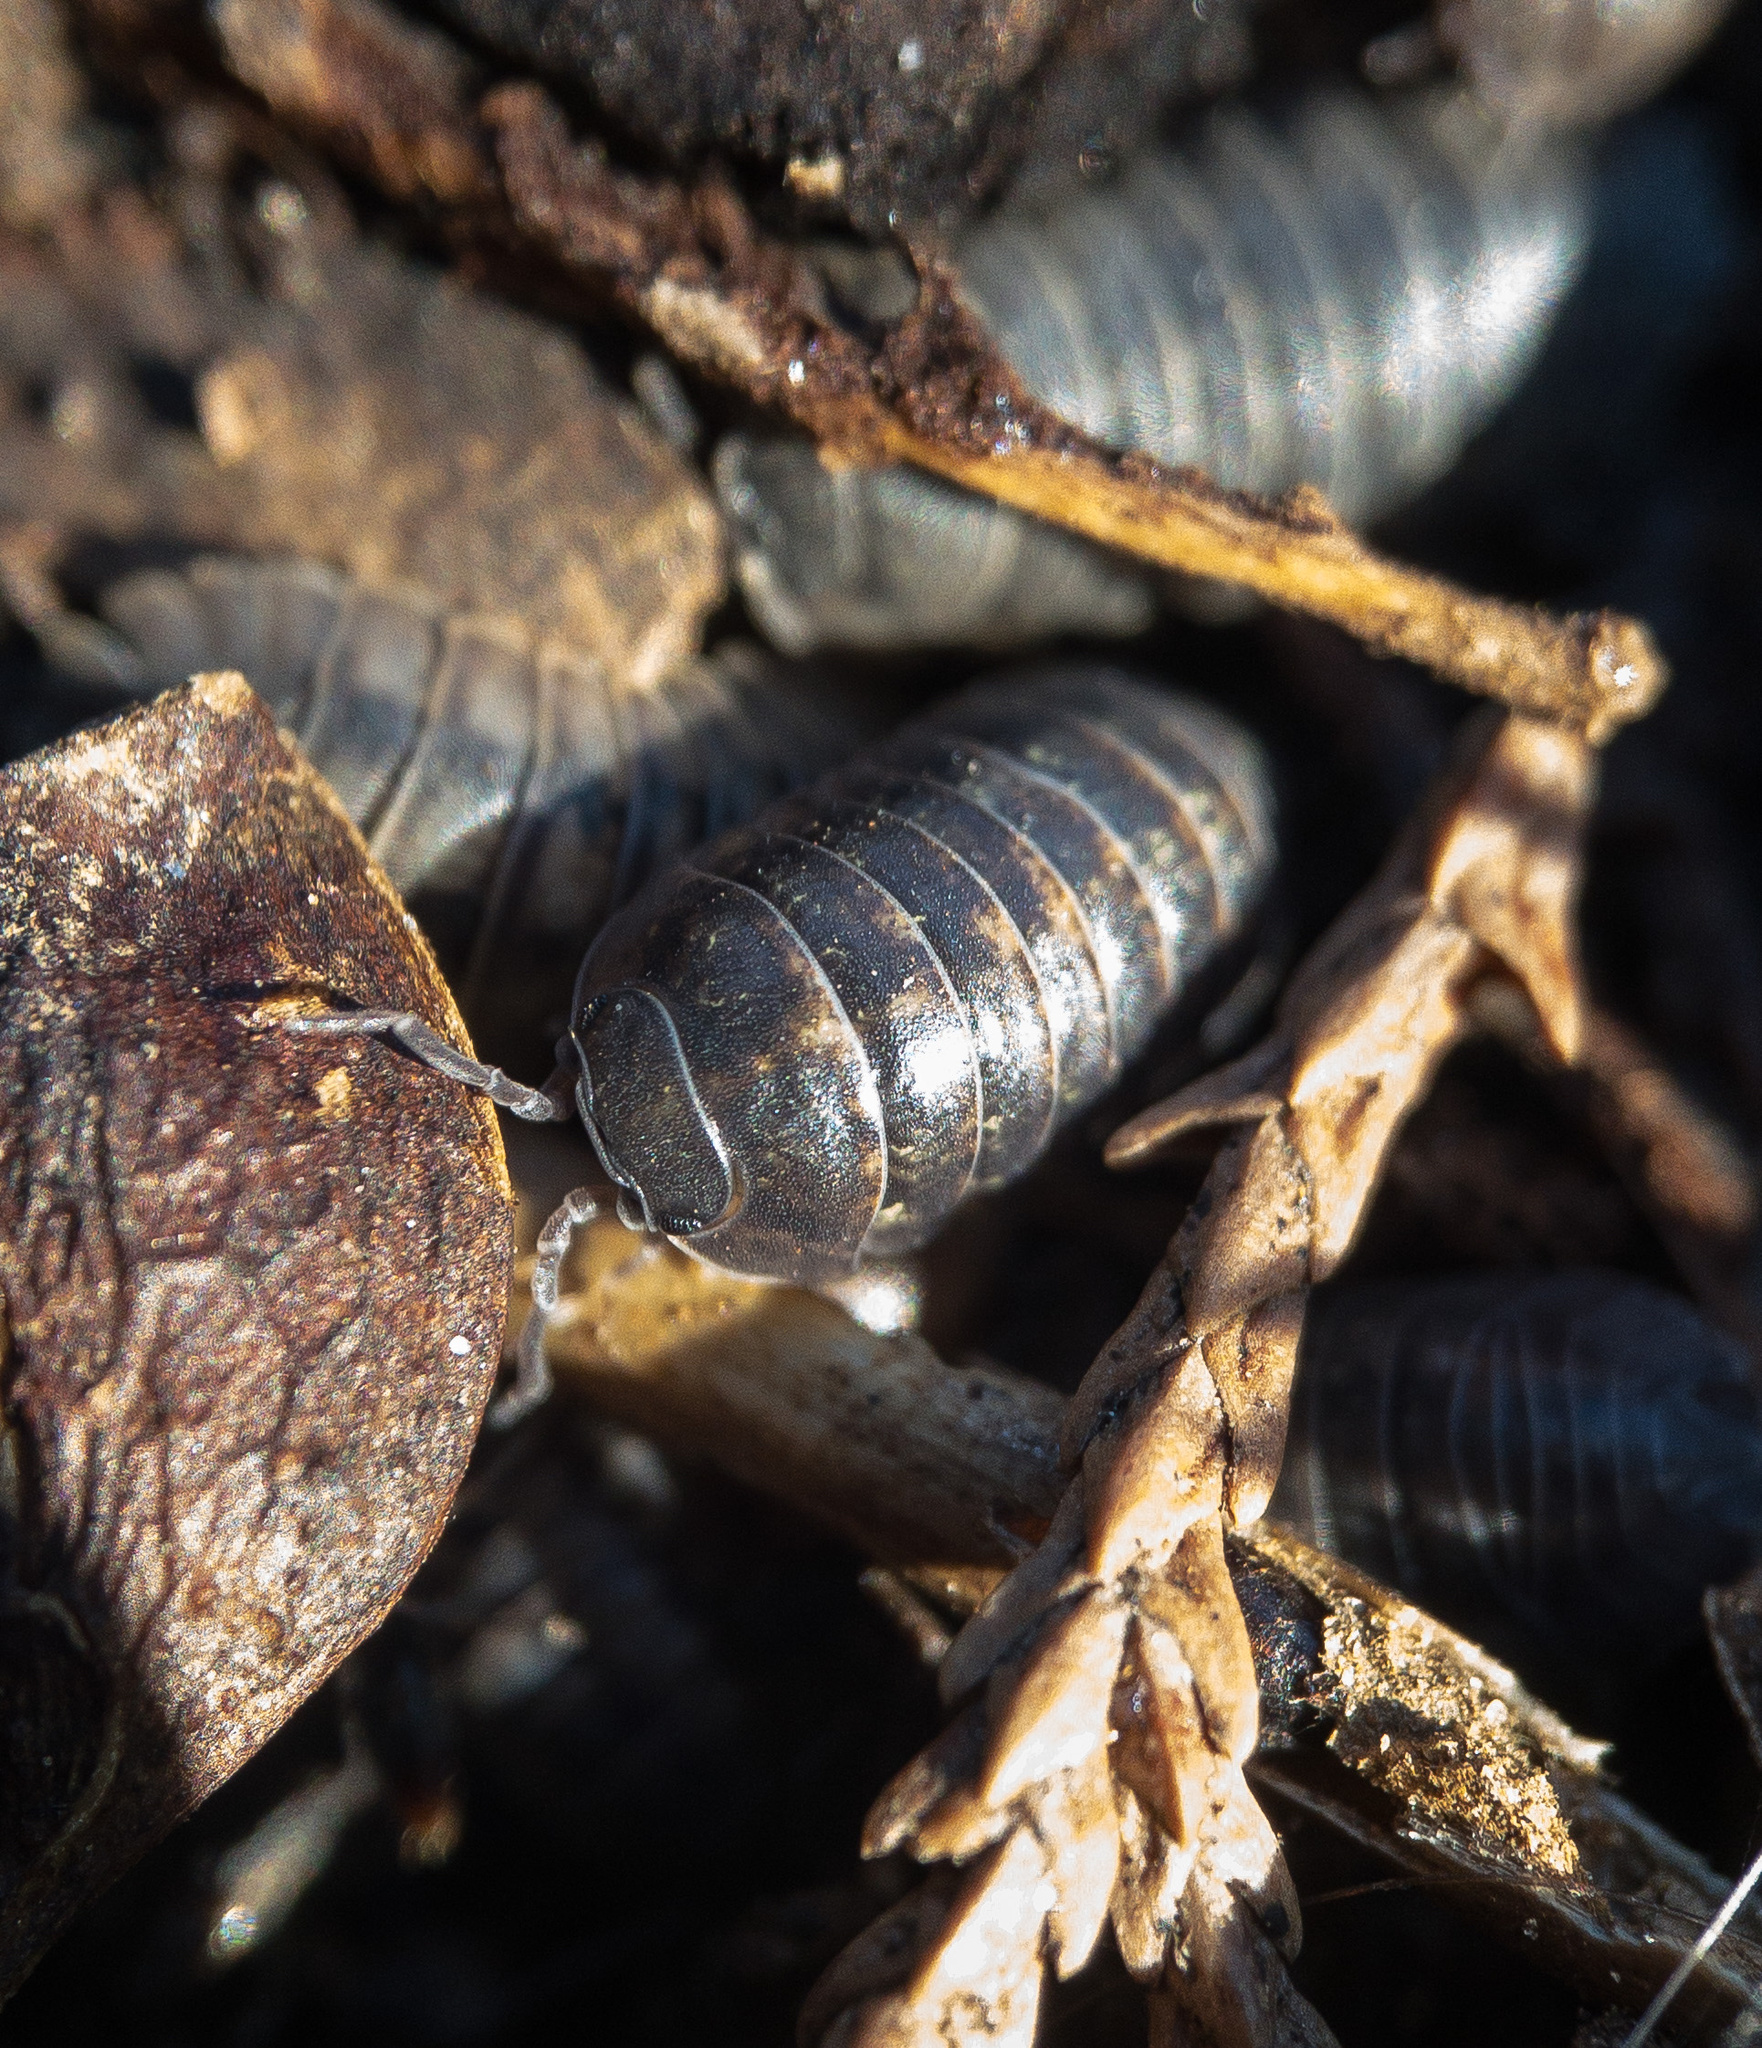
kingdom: Animalia
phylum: Arthropoda
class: Malacostraca
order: Isopoda
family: Armadillidiidae
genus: Armadillidium
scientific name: Armadillidium vulgare
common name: Common pill woodlouse
